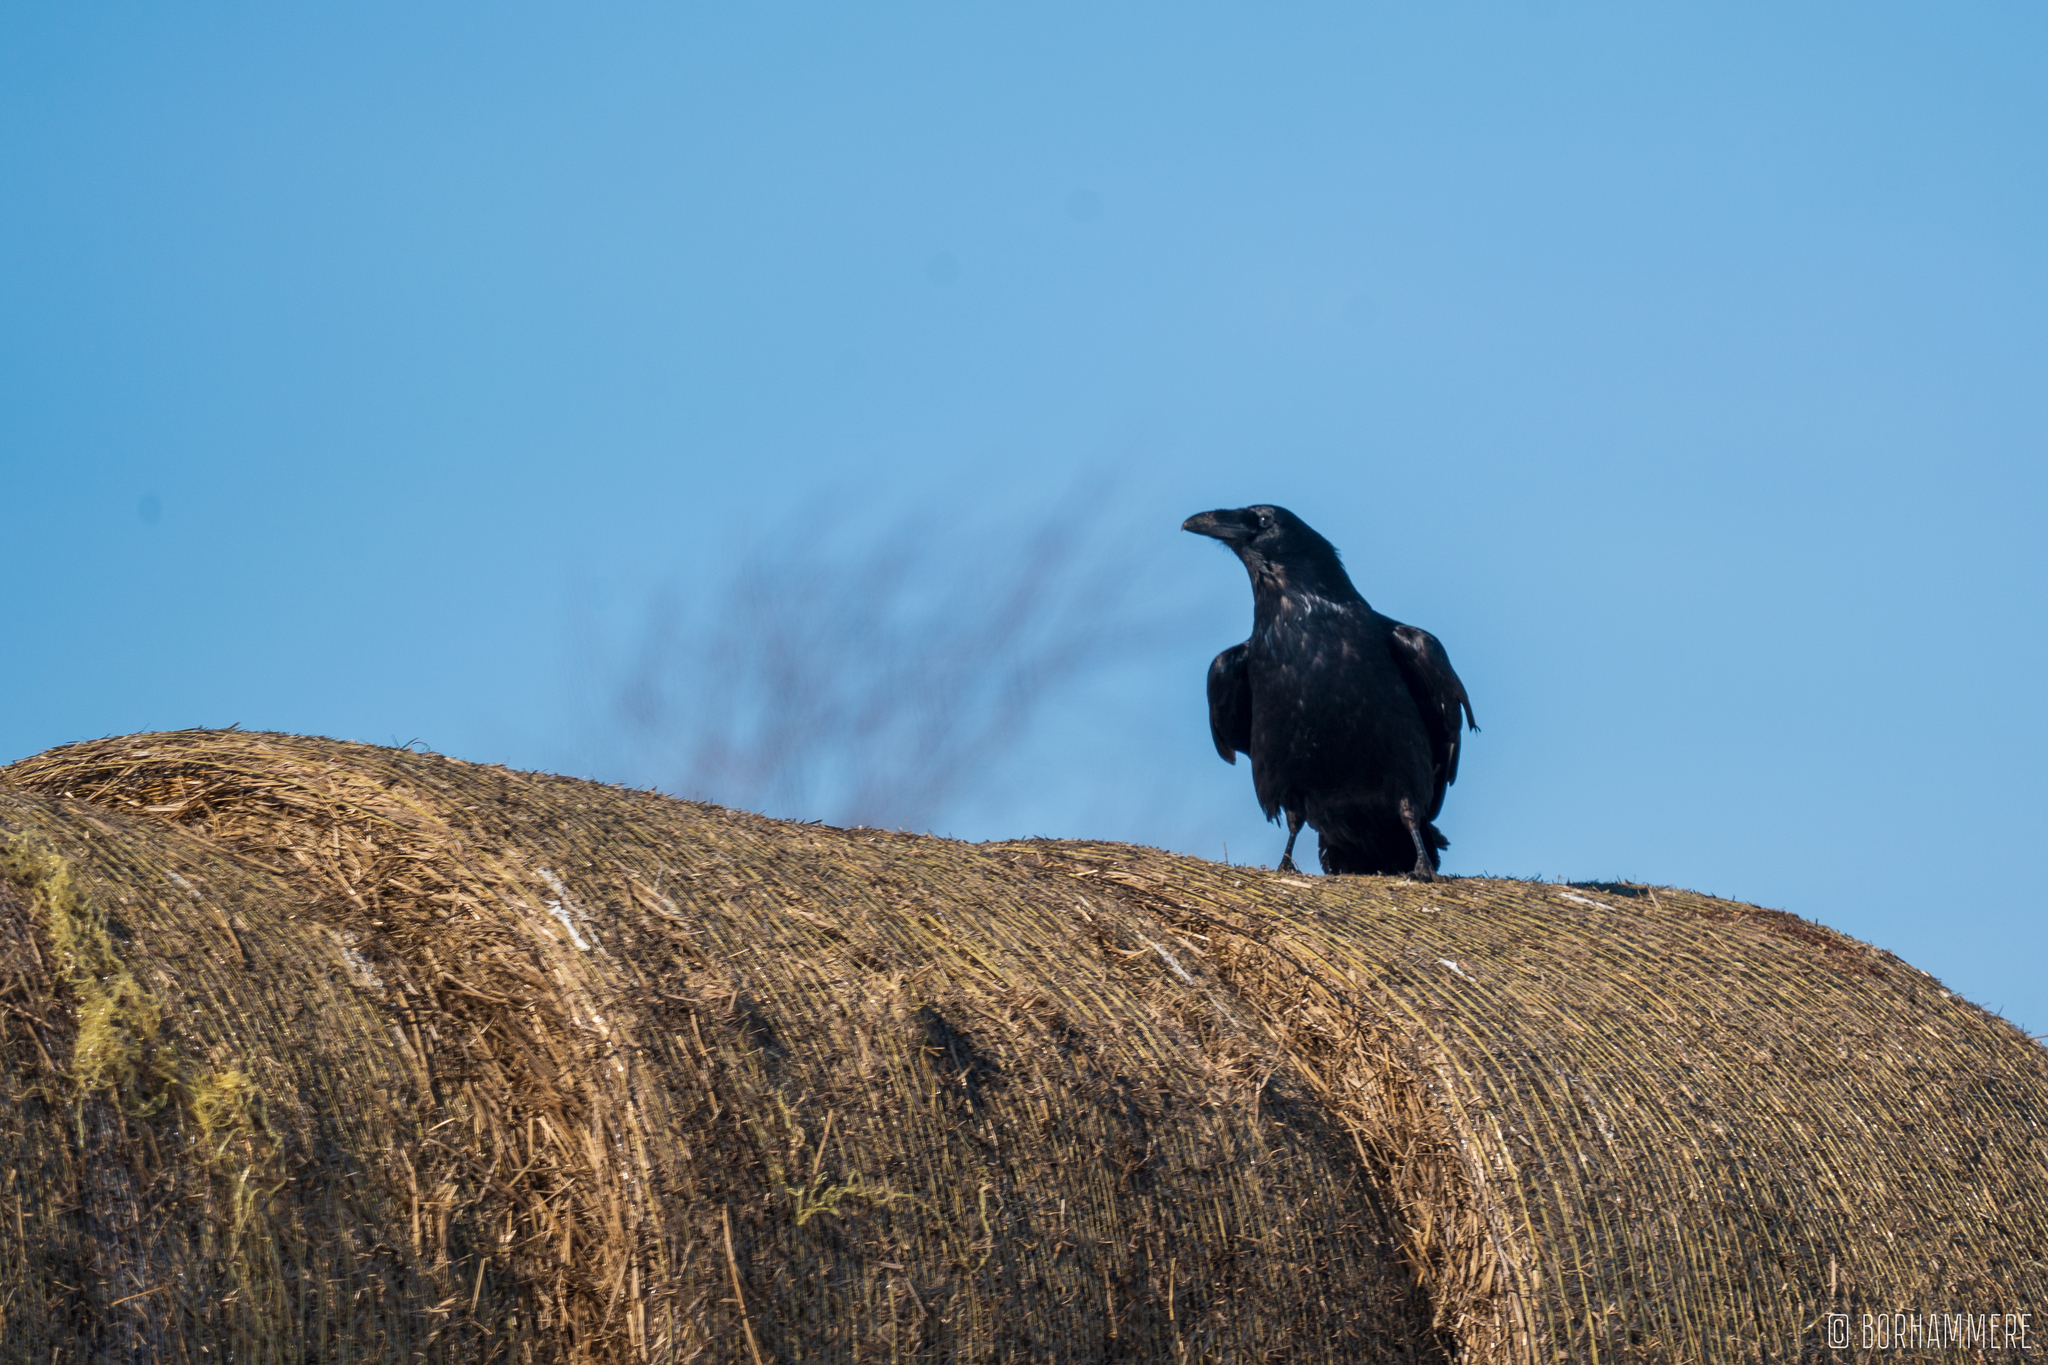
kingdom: Animalia
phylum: Chordata
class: Aves
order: Passeriformes
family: Corvidae
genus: Corvus
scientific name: Corvus corax
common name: Common raven
